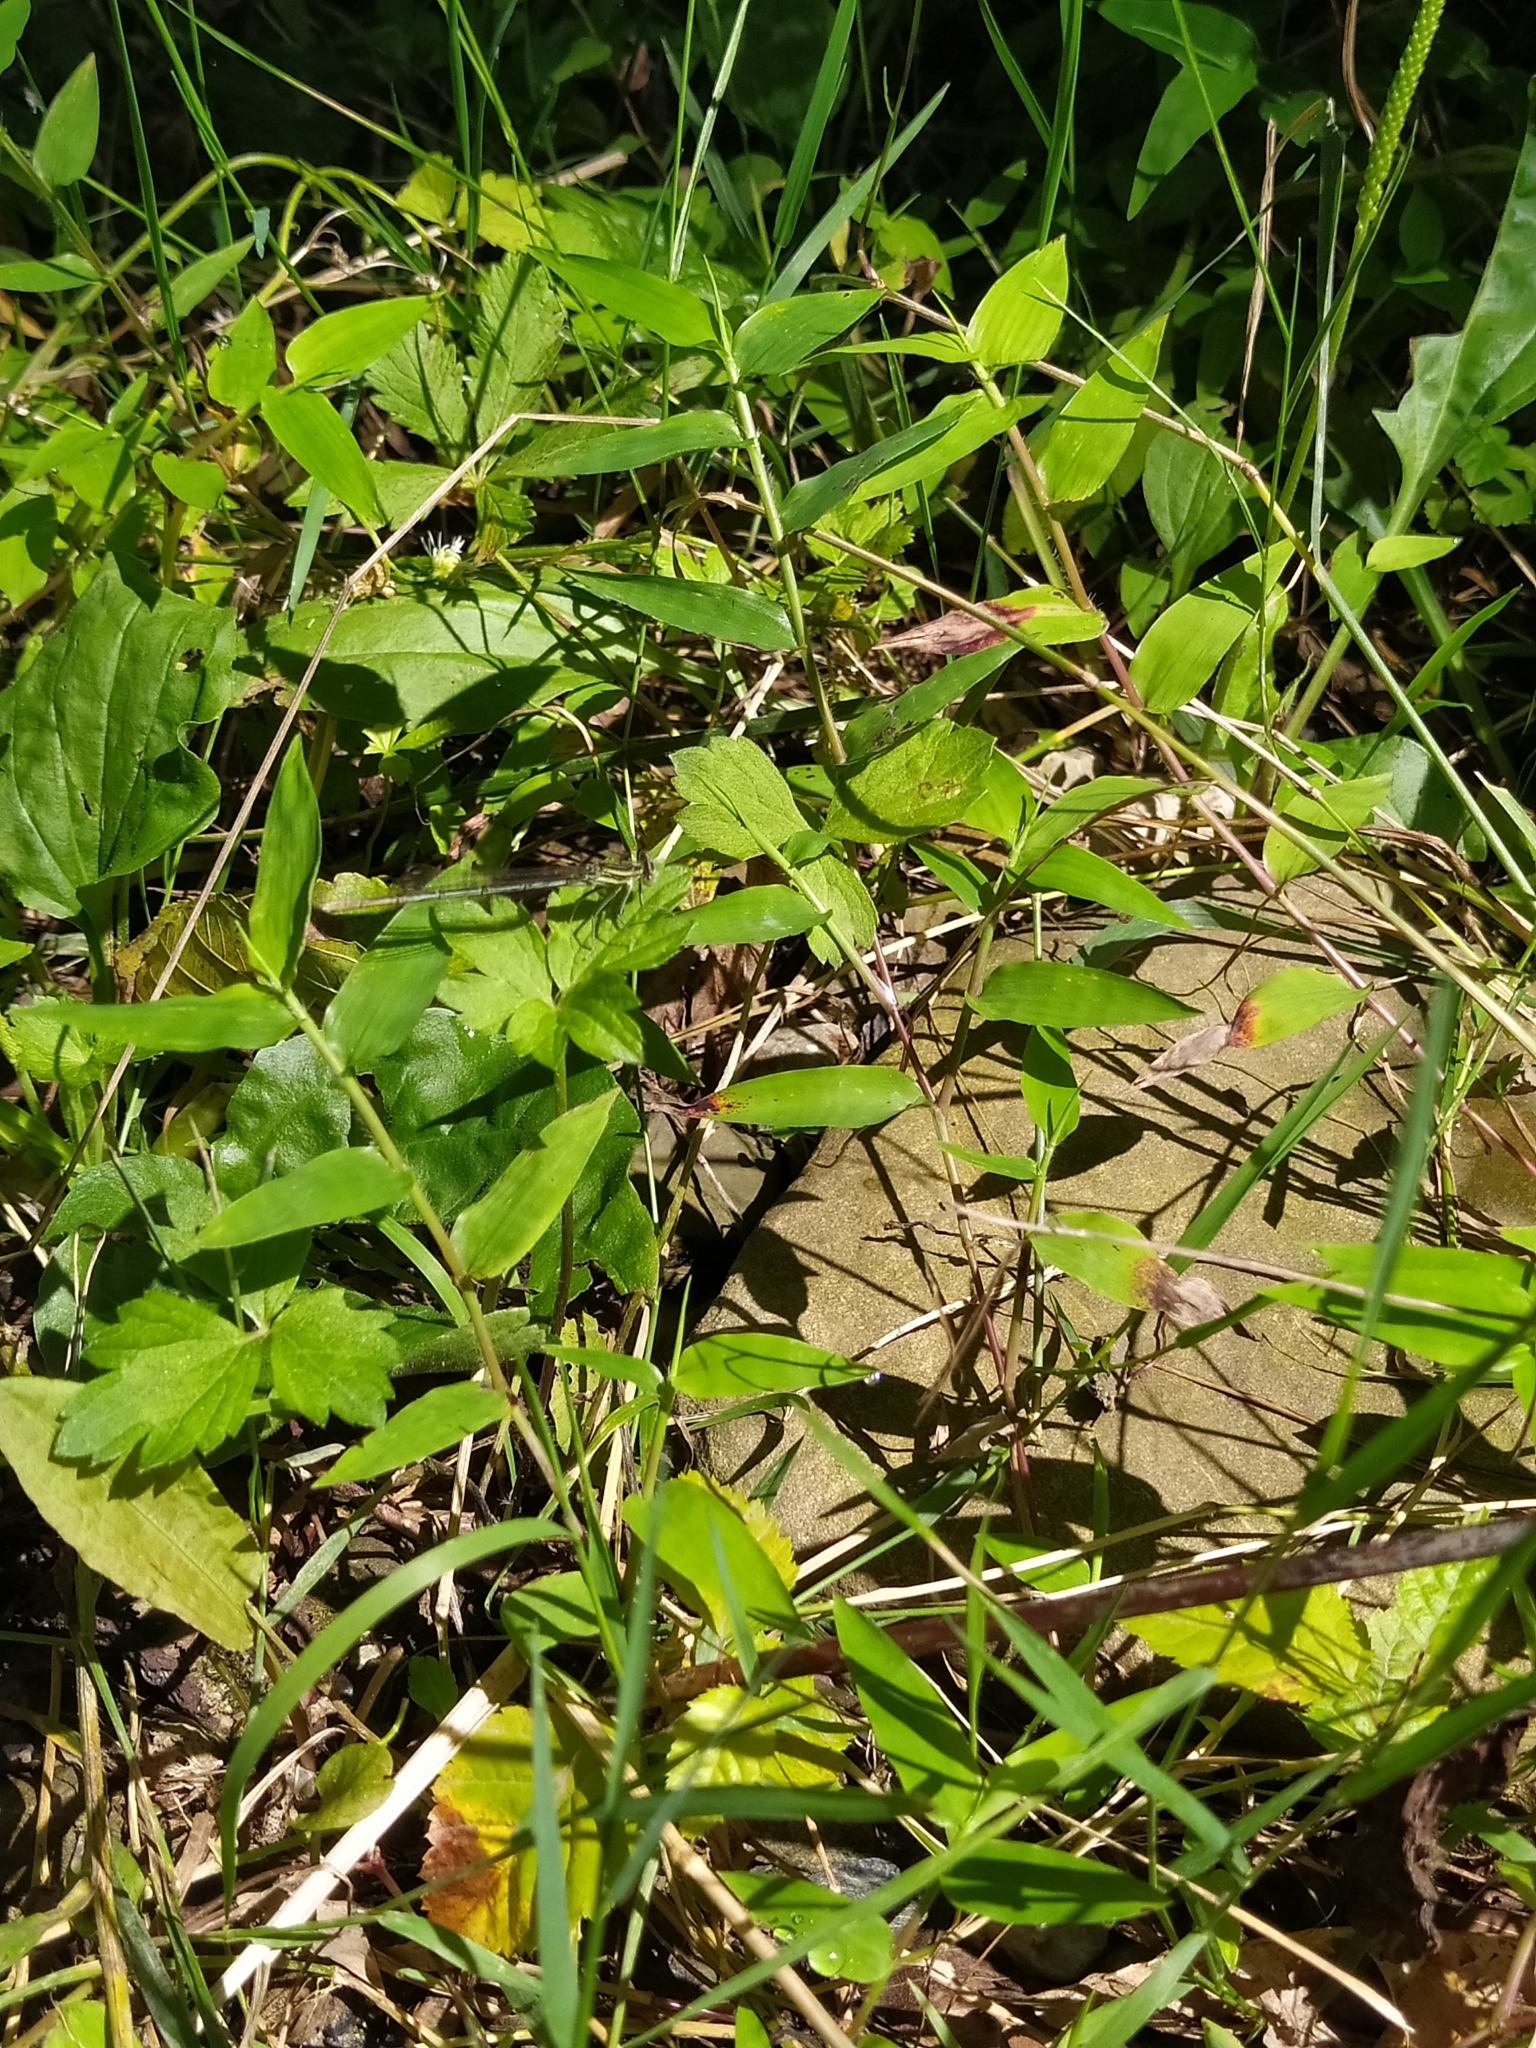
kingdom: Animalia
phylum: Arthropoda
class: Insecta
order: Odonata
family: Platycnemididae
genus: Platycnemis
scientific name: Platycnemis pennipes
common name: White-legged damselfly
